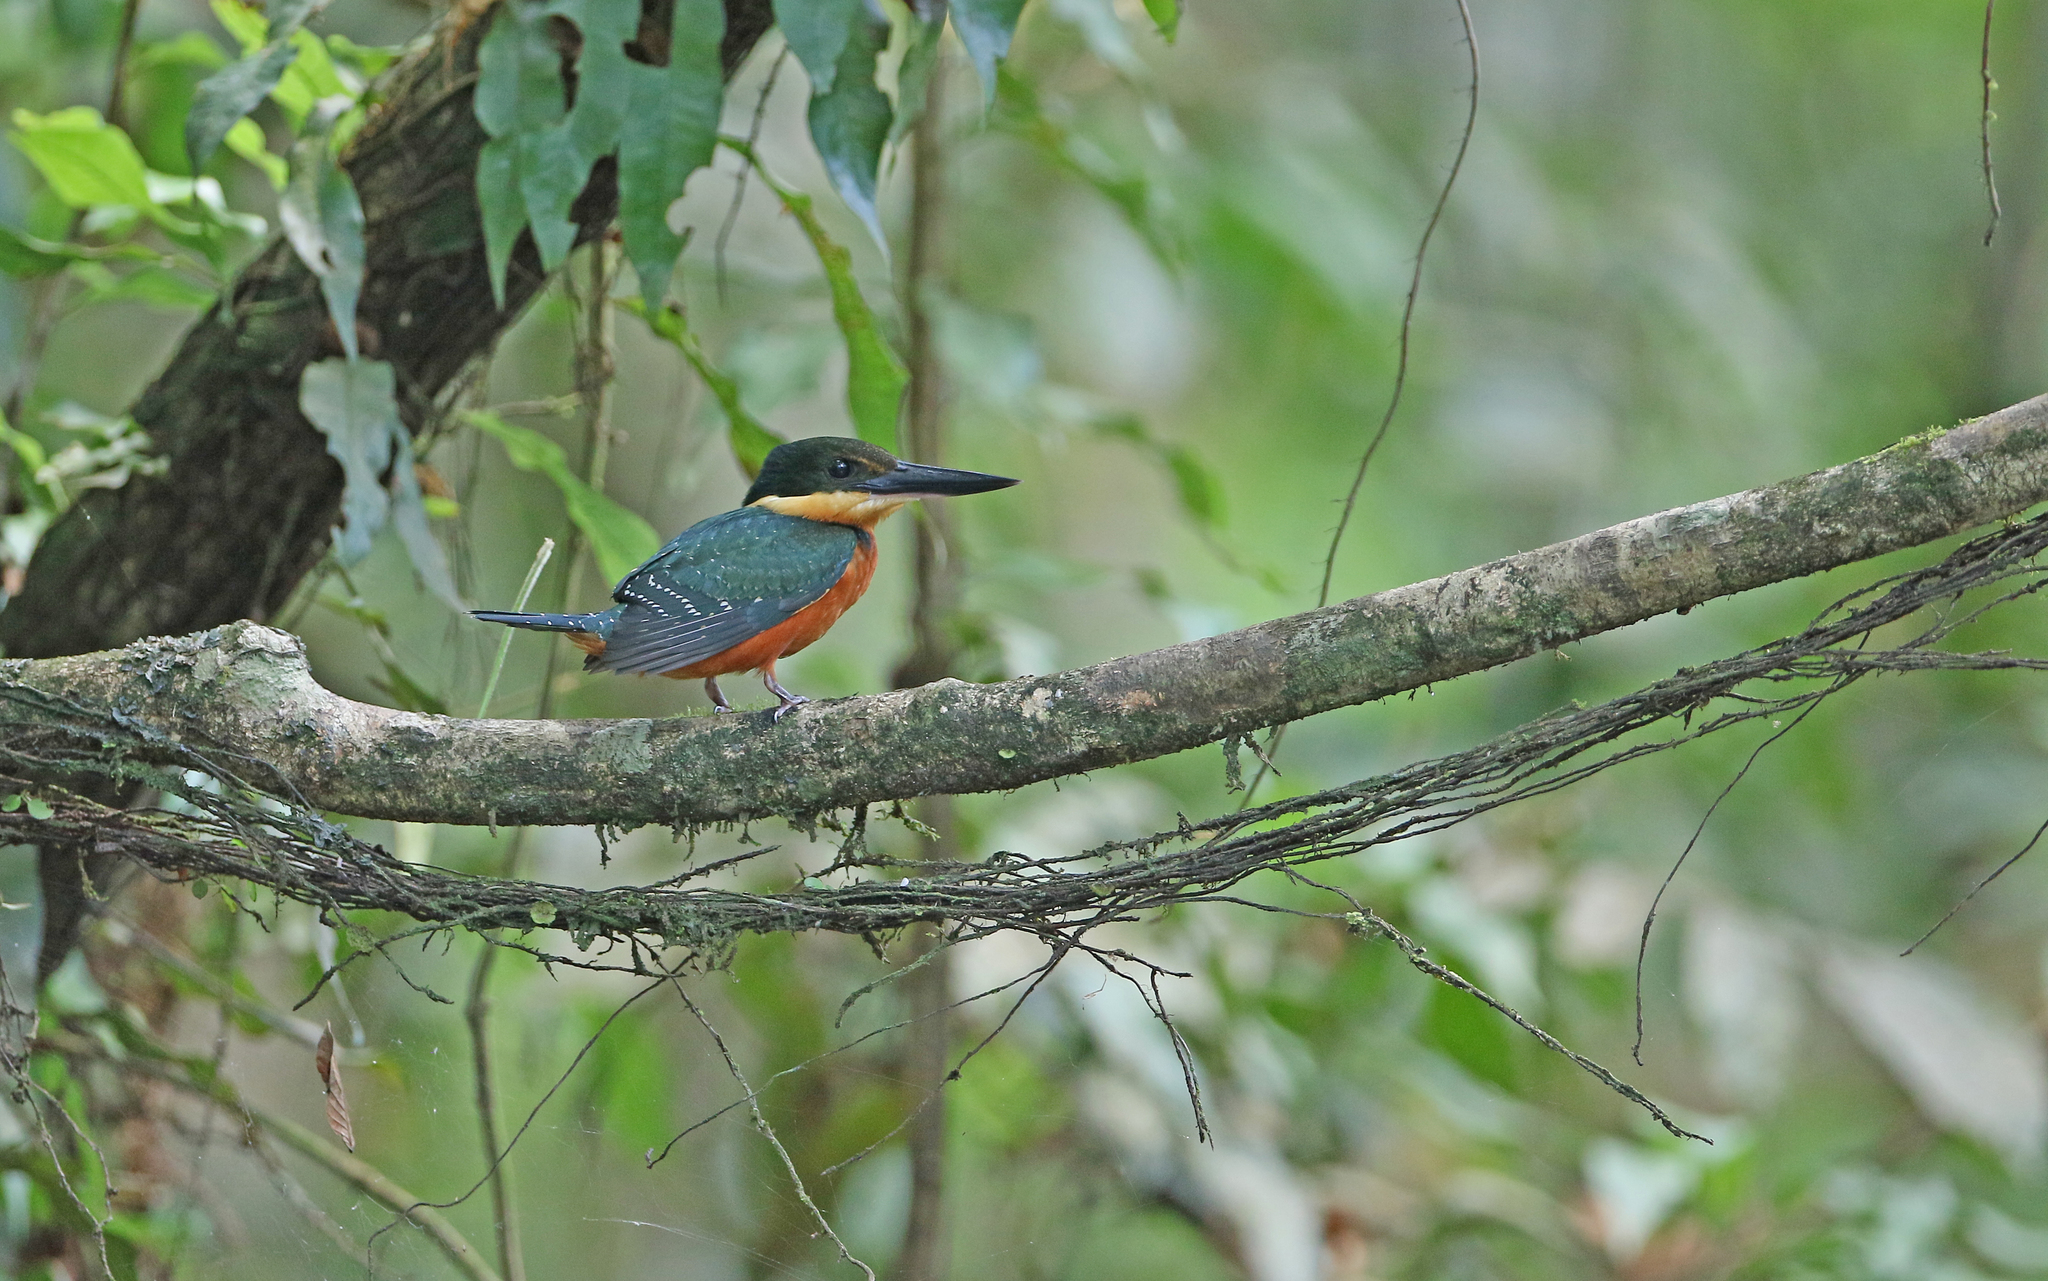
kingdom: Animalia
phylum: Chordata
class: Aves
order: Coraciiformes
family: Alcedinidae
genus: Chloroceryle
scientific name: Chloroceryle inda
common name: Green-and-rufous kingfisher
